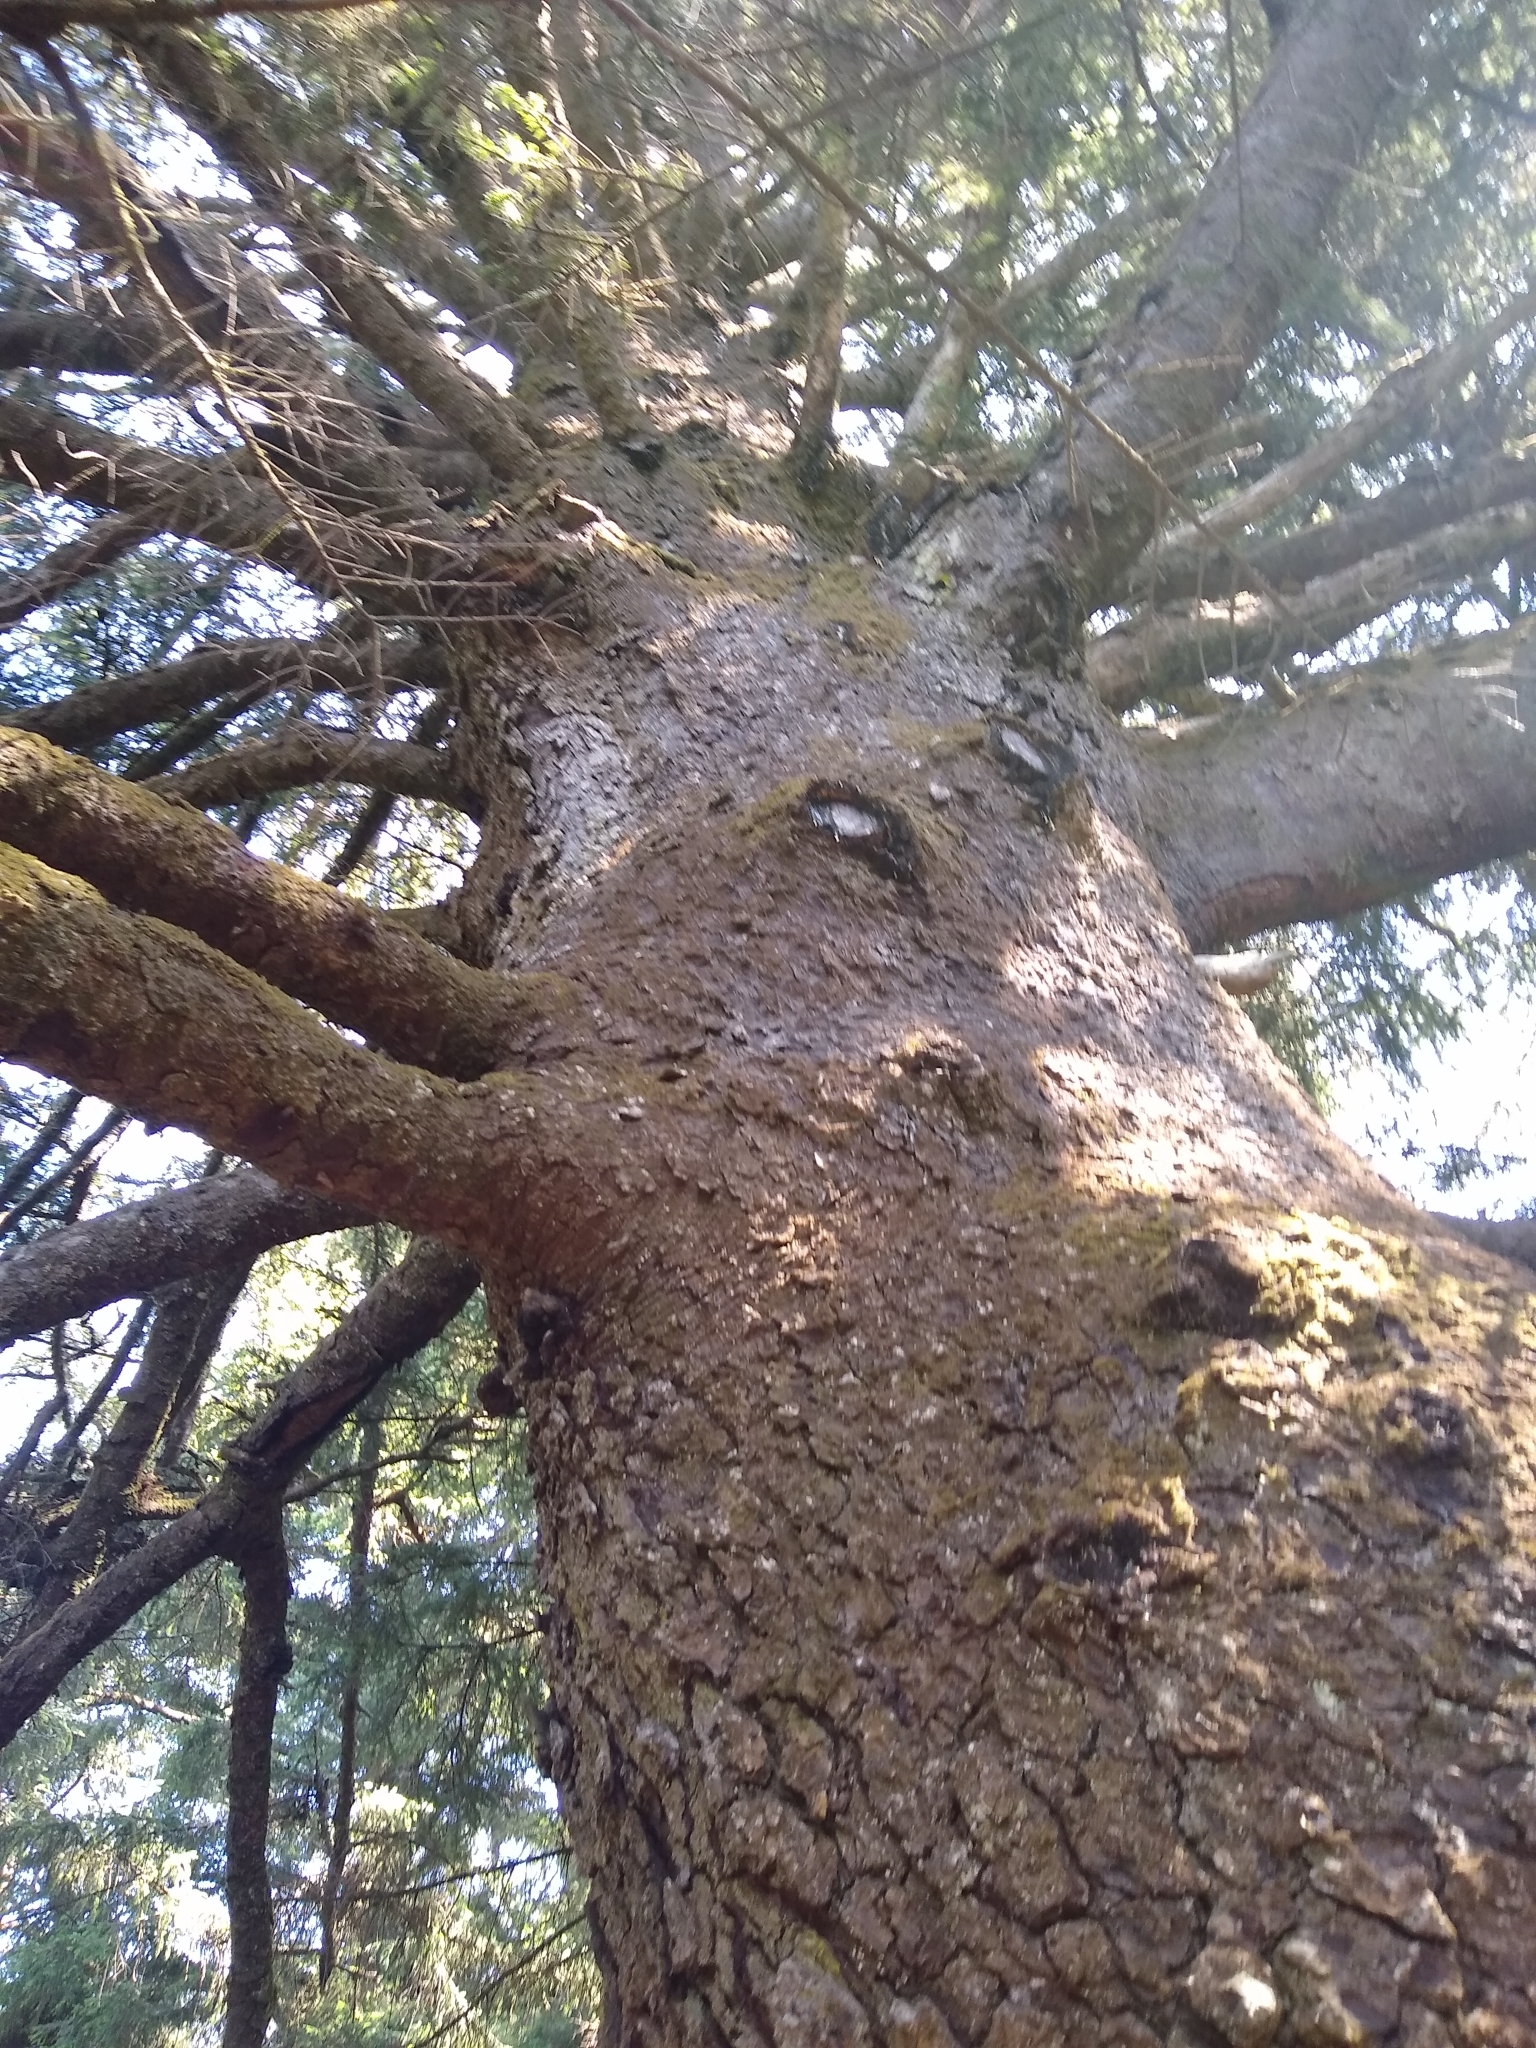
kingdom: Plantae
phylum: Tracheophyta
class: Pinopsida
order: Pinales
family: Pinaceae
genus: Picea
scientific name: Picea sitchensis
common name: Sitka spruce
